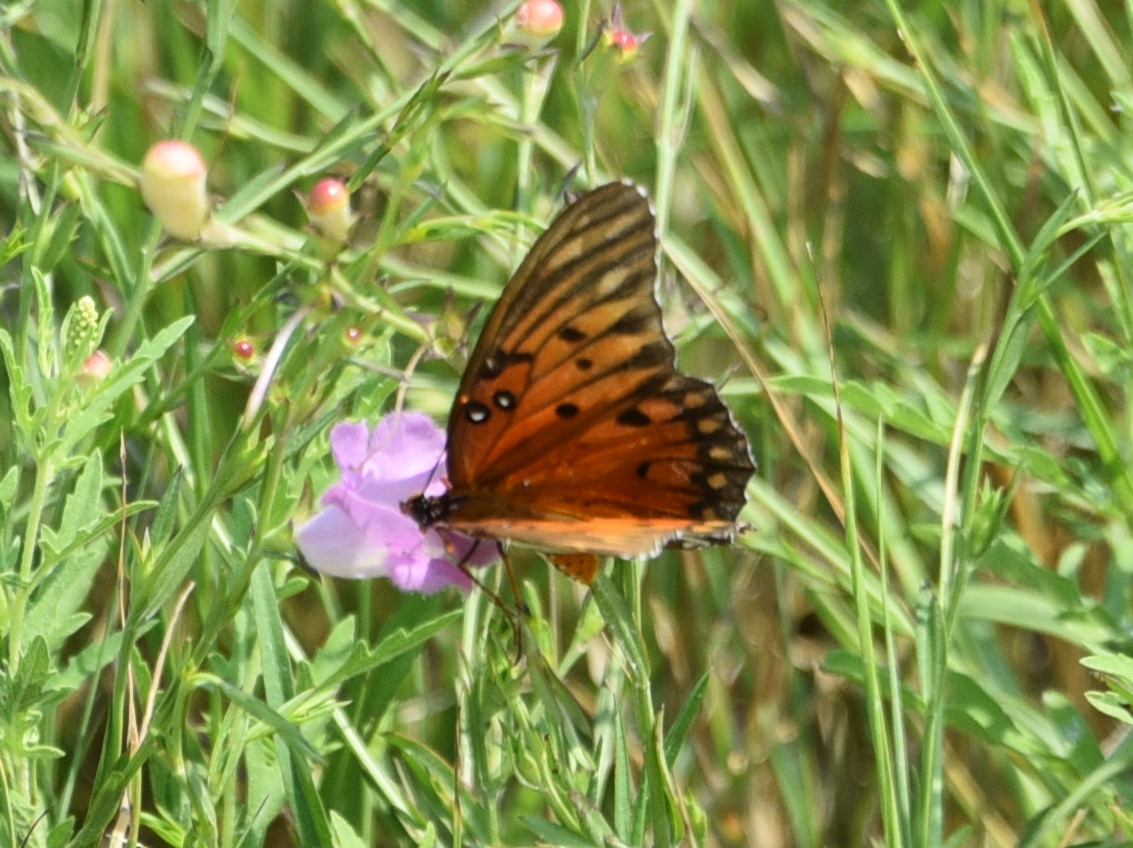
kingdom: Animalia
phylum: Arthropoda
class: Insecta
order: Lepidoptera
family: Nymphalidae
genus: Dione
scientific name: Dione vanillae
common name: Gulf fritillary
